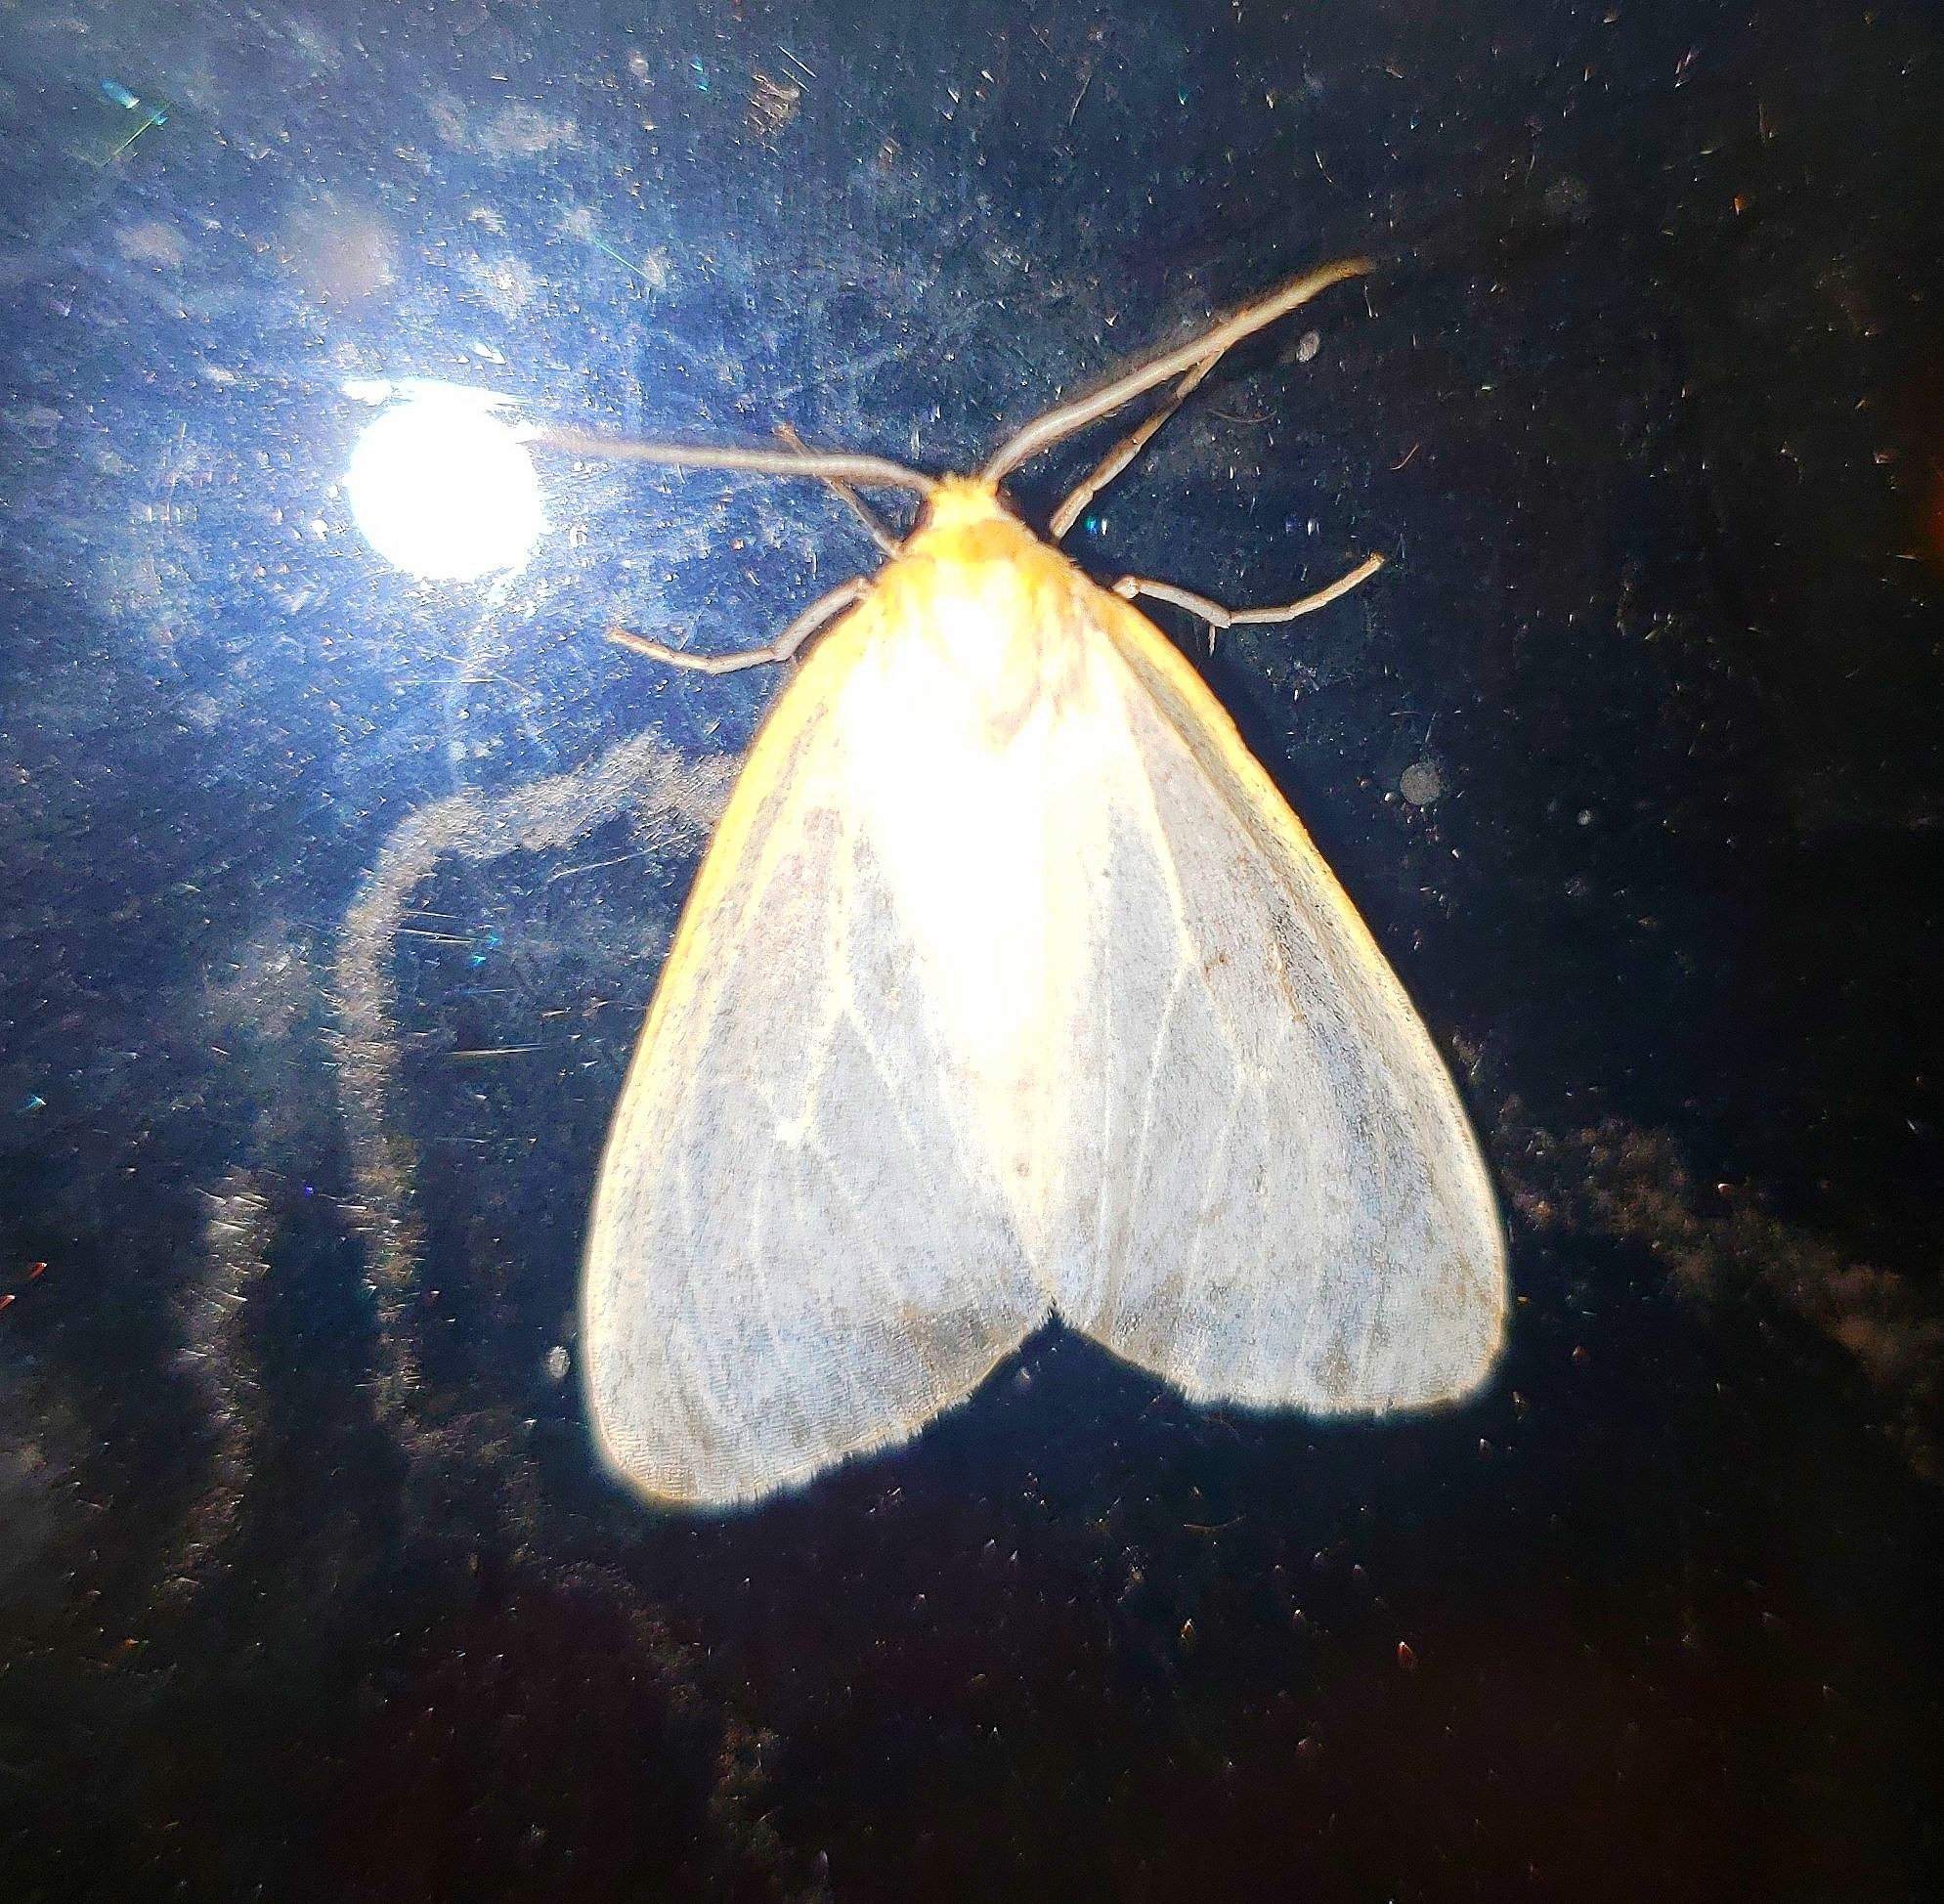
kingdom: Animalia
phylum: Arthropoda
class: Insecta
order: Lepidoptera
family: Erebidae
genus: Cycnia
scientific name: Cycnia tenera
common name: Delicate cycnia moth
